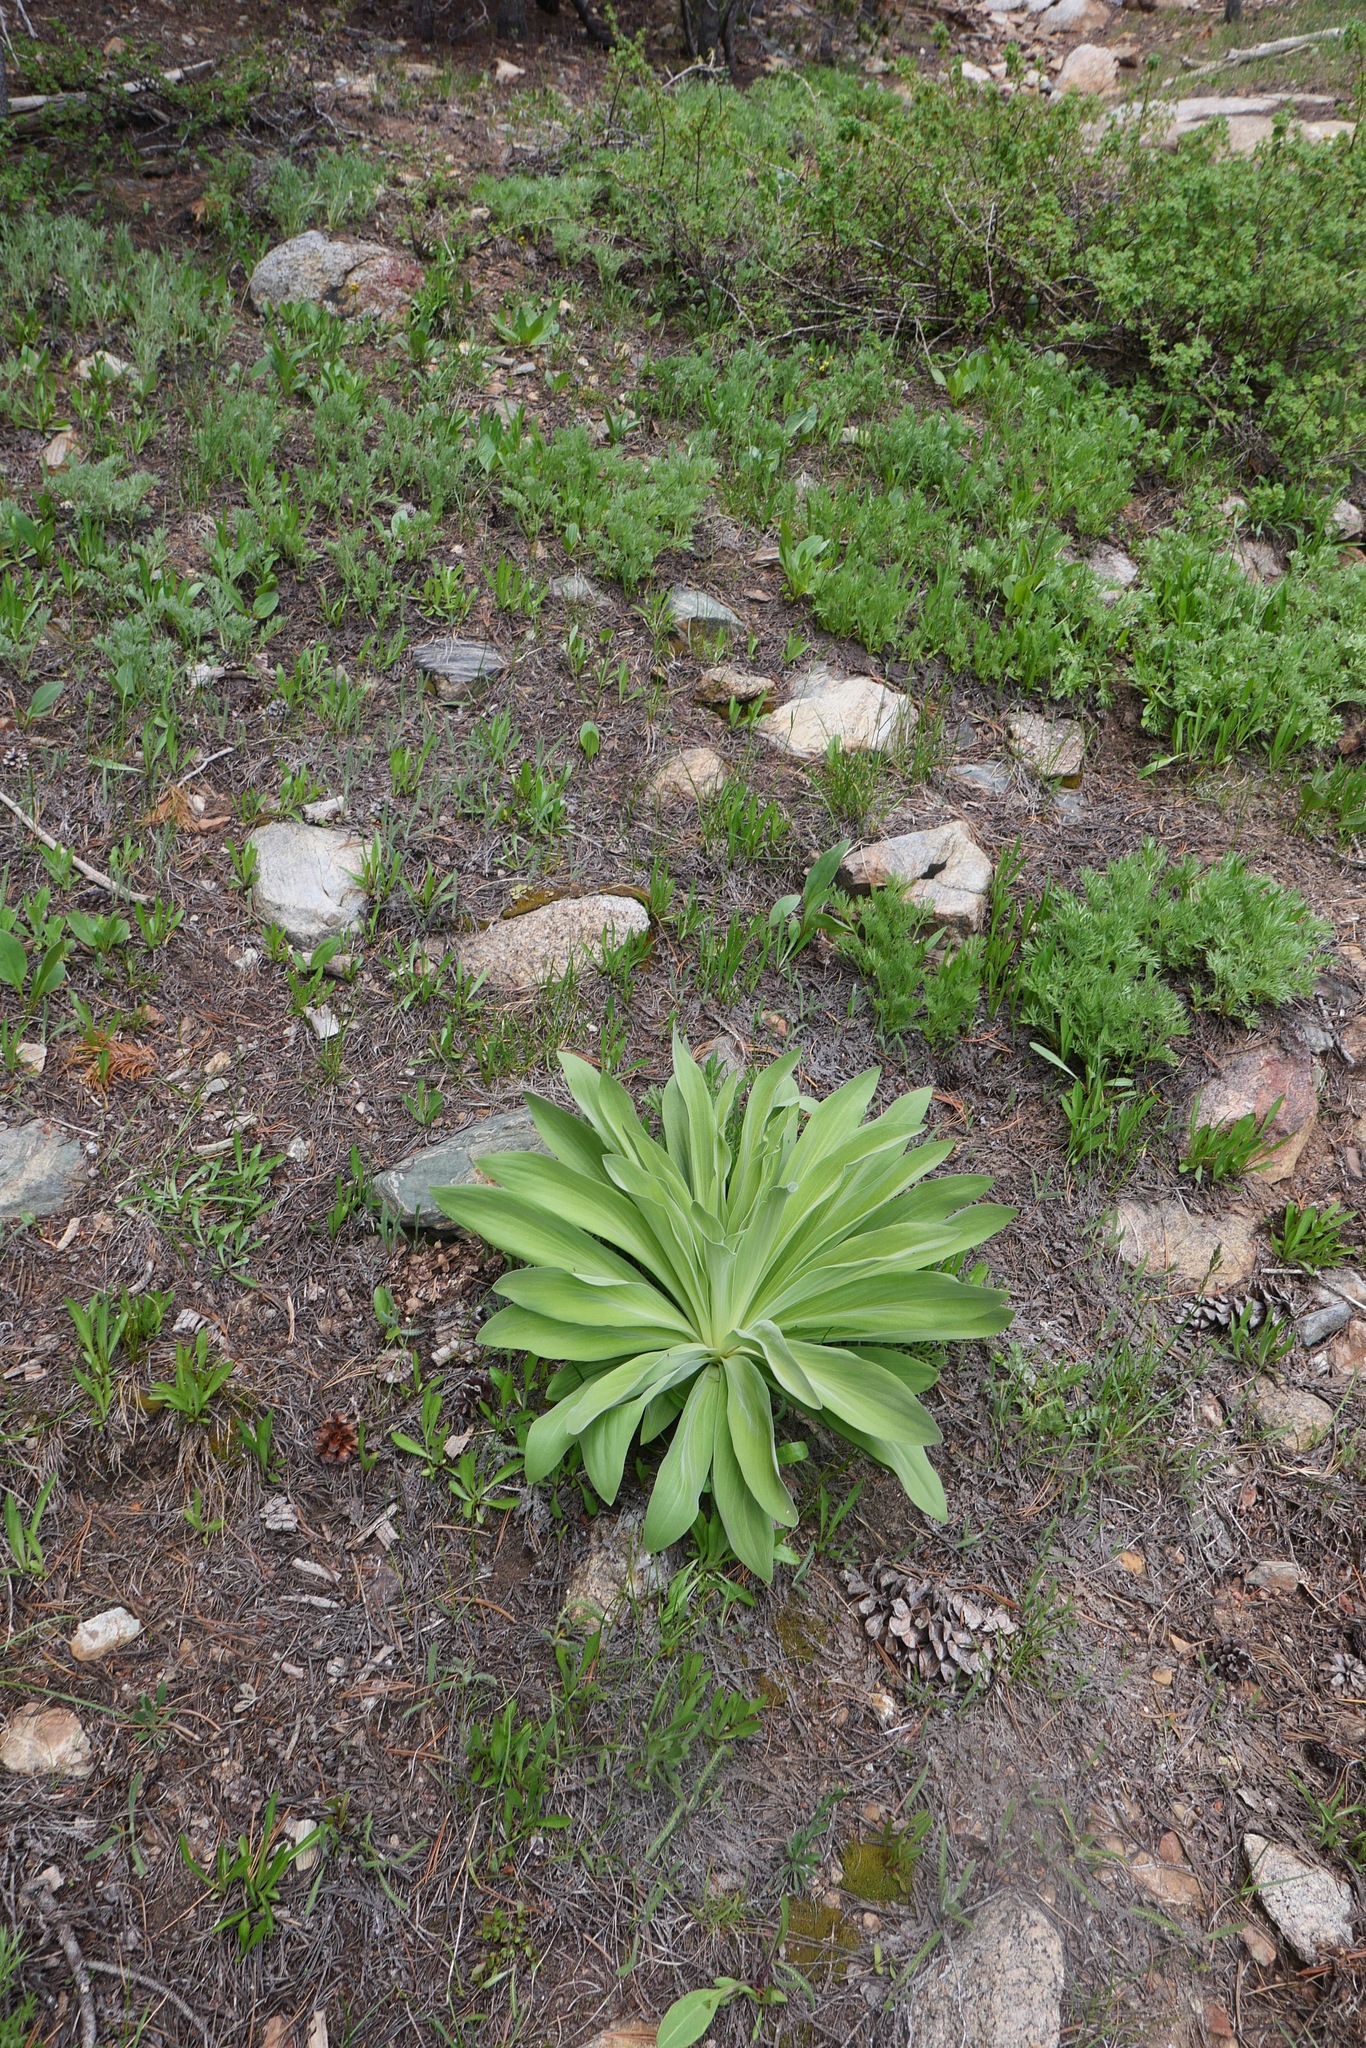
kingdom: Plantae
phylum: Tracheophyta
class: Magnoliopsida
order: Gentianales
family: Gentianaceae
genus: Frasera
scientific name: Frasera speciosa
